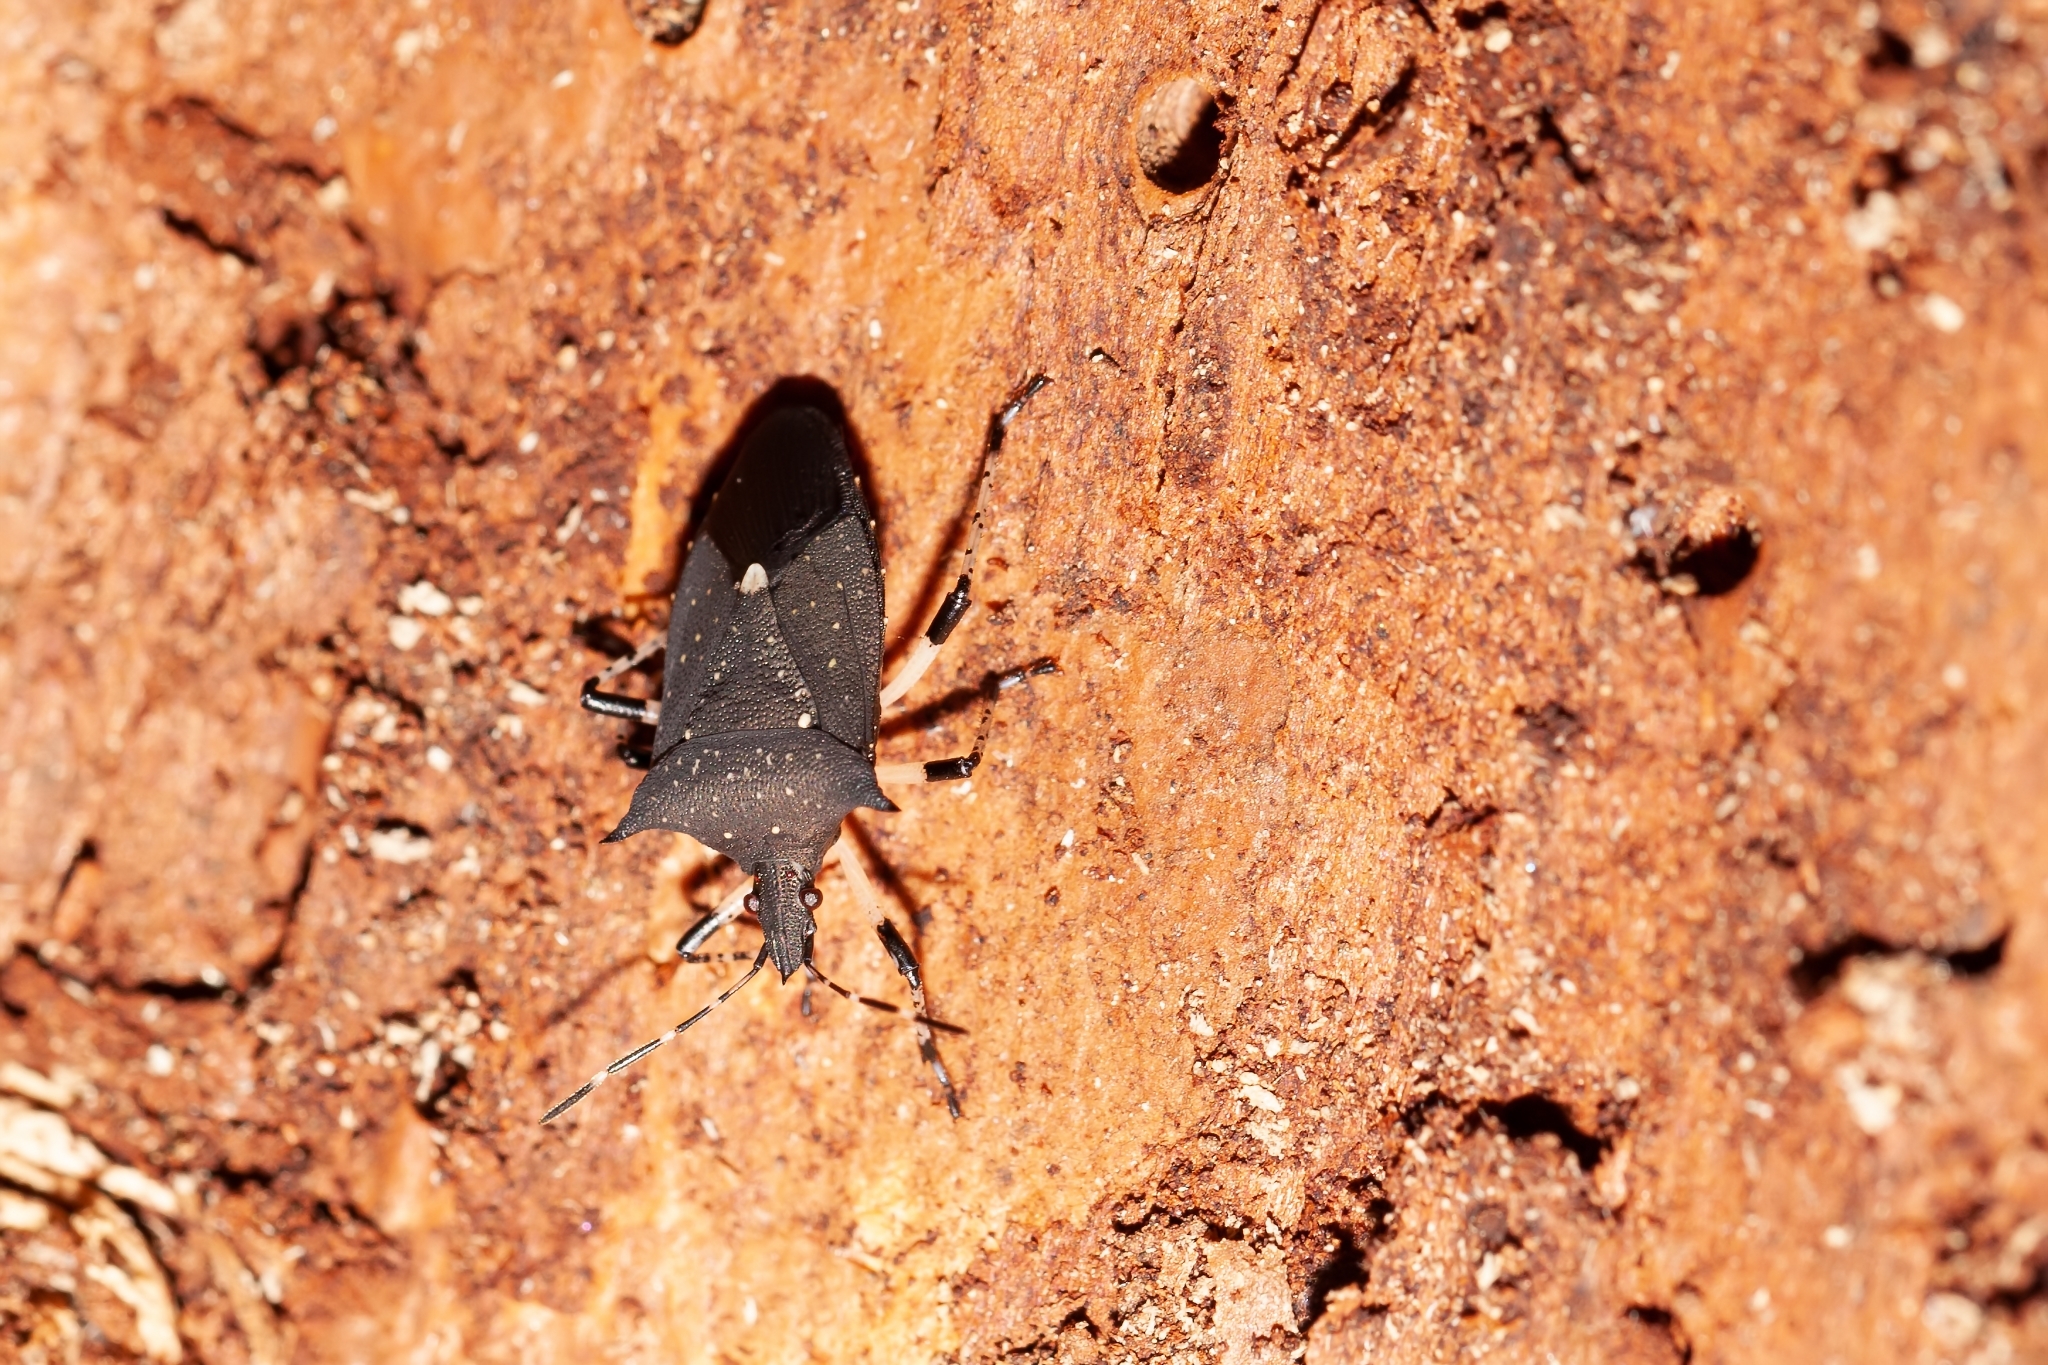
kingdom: Animalia
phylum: Arthropoda
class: Insecta
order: Hemiptera
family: Pentatomidae
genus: Proxys
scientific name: Proxys punctulatus
